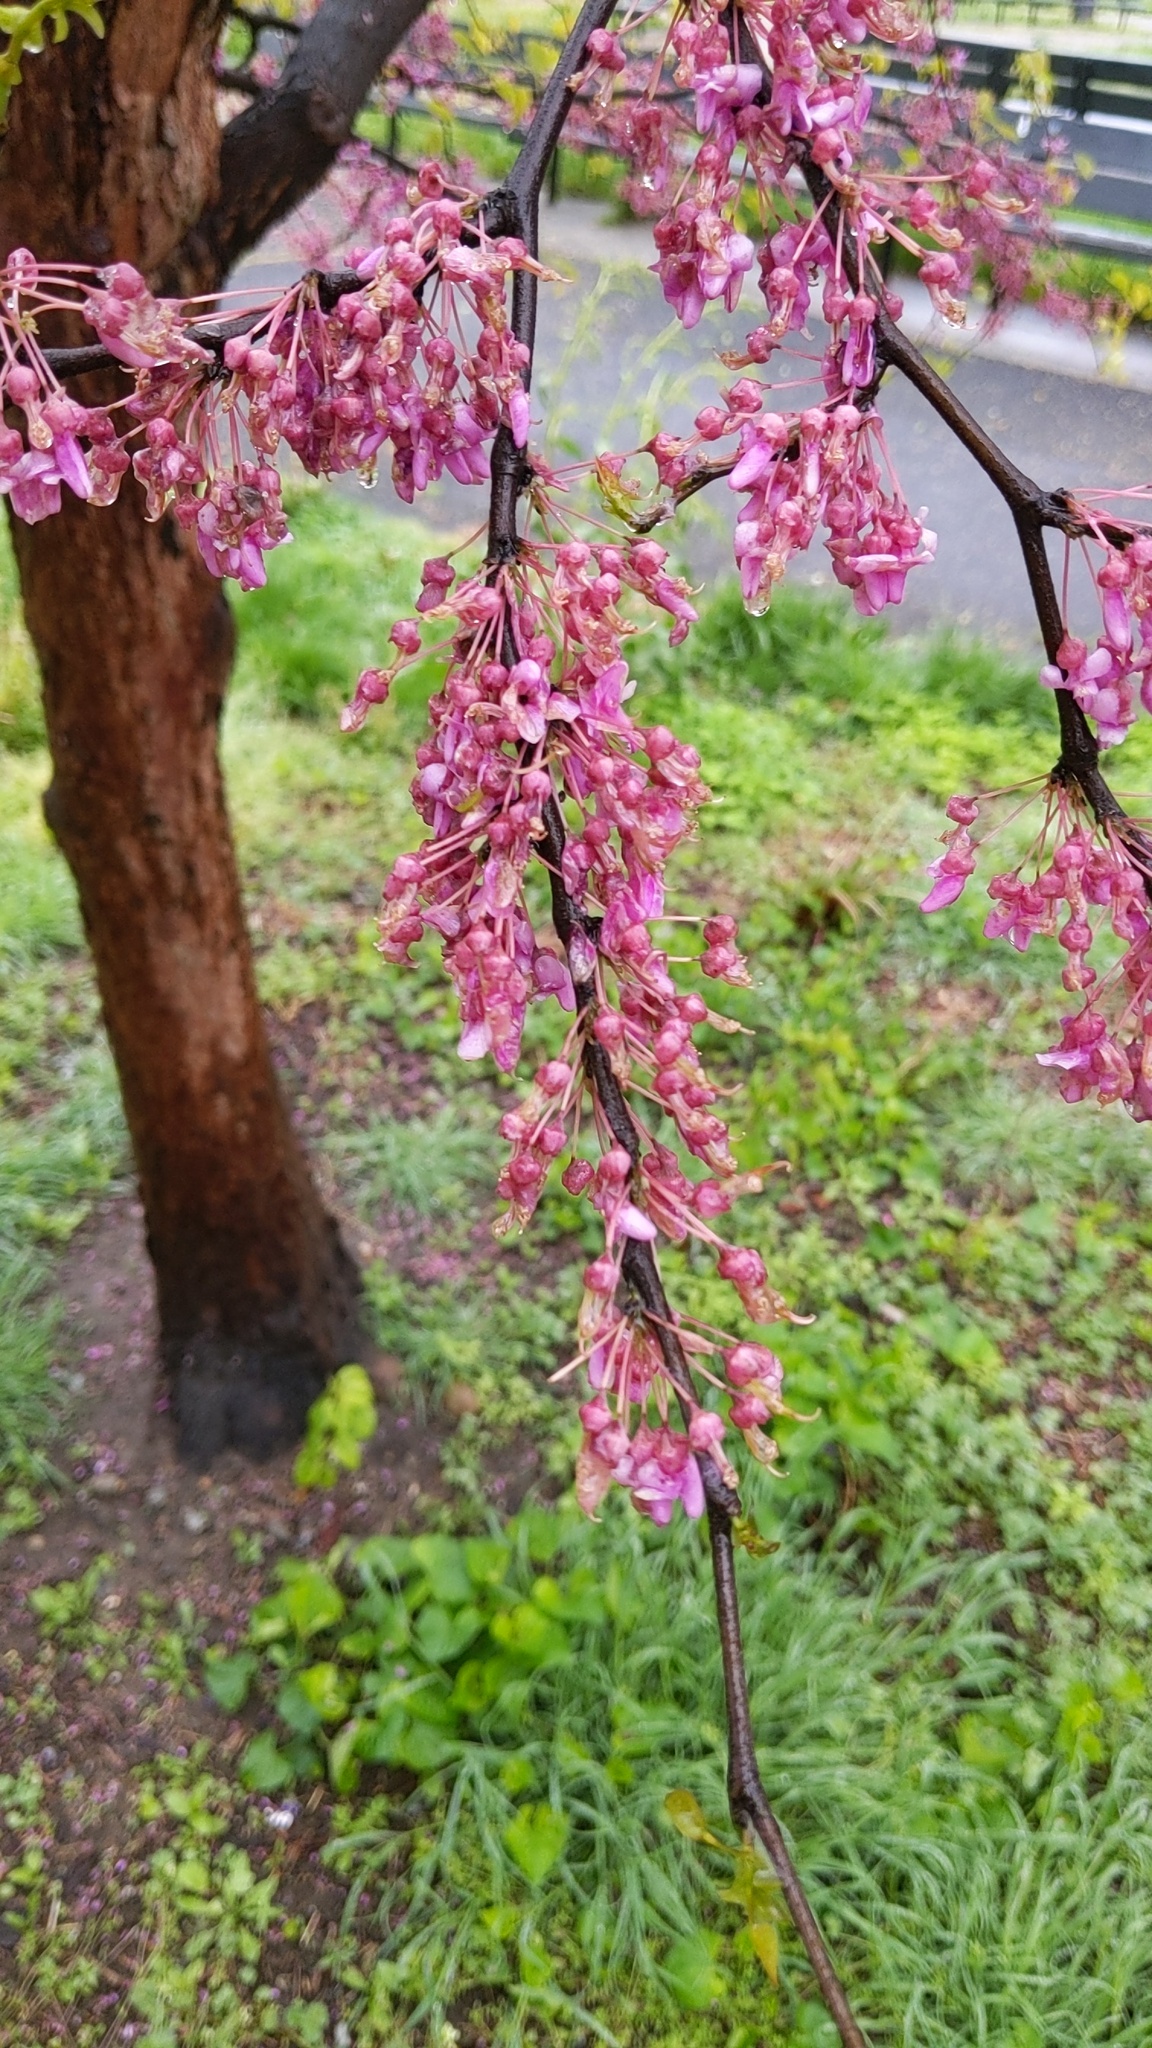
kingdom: Plantae
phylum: Tracheophyta
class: Magnoliopsida
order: Fabales
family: Fabaceae
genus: Cercis
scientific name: Cercis canadensis
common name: Eastern redbud
